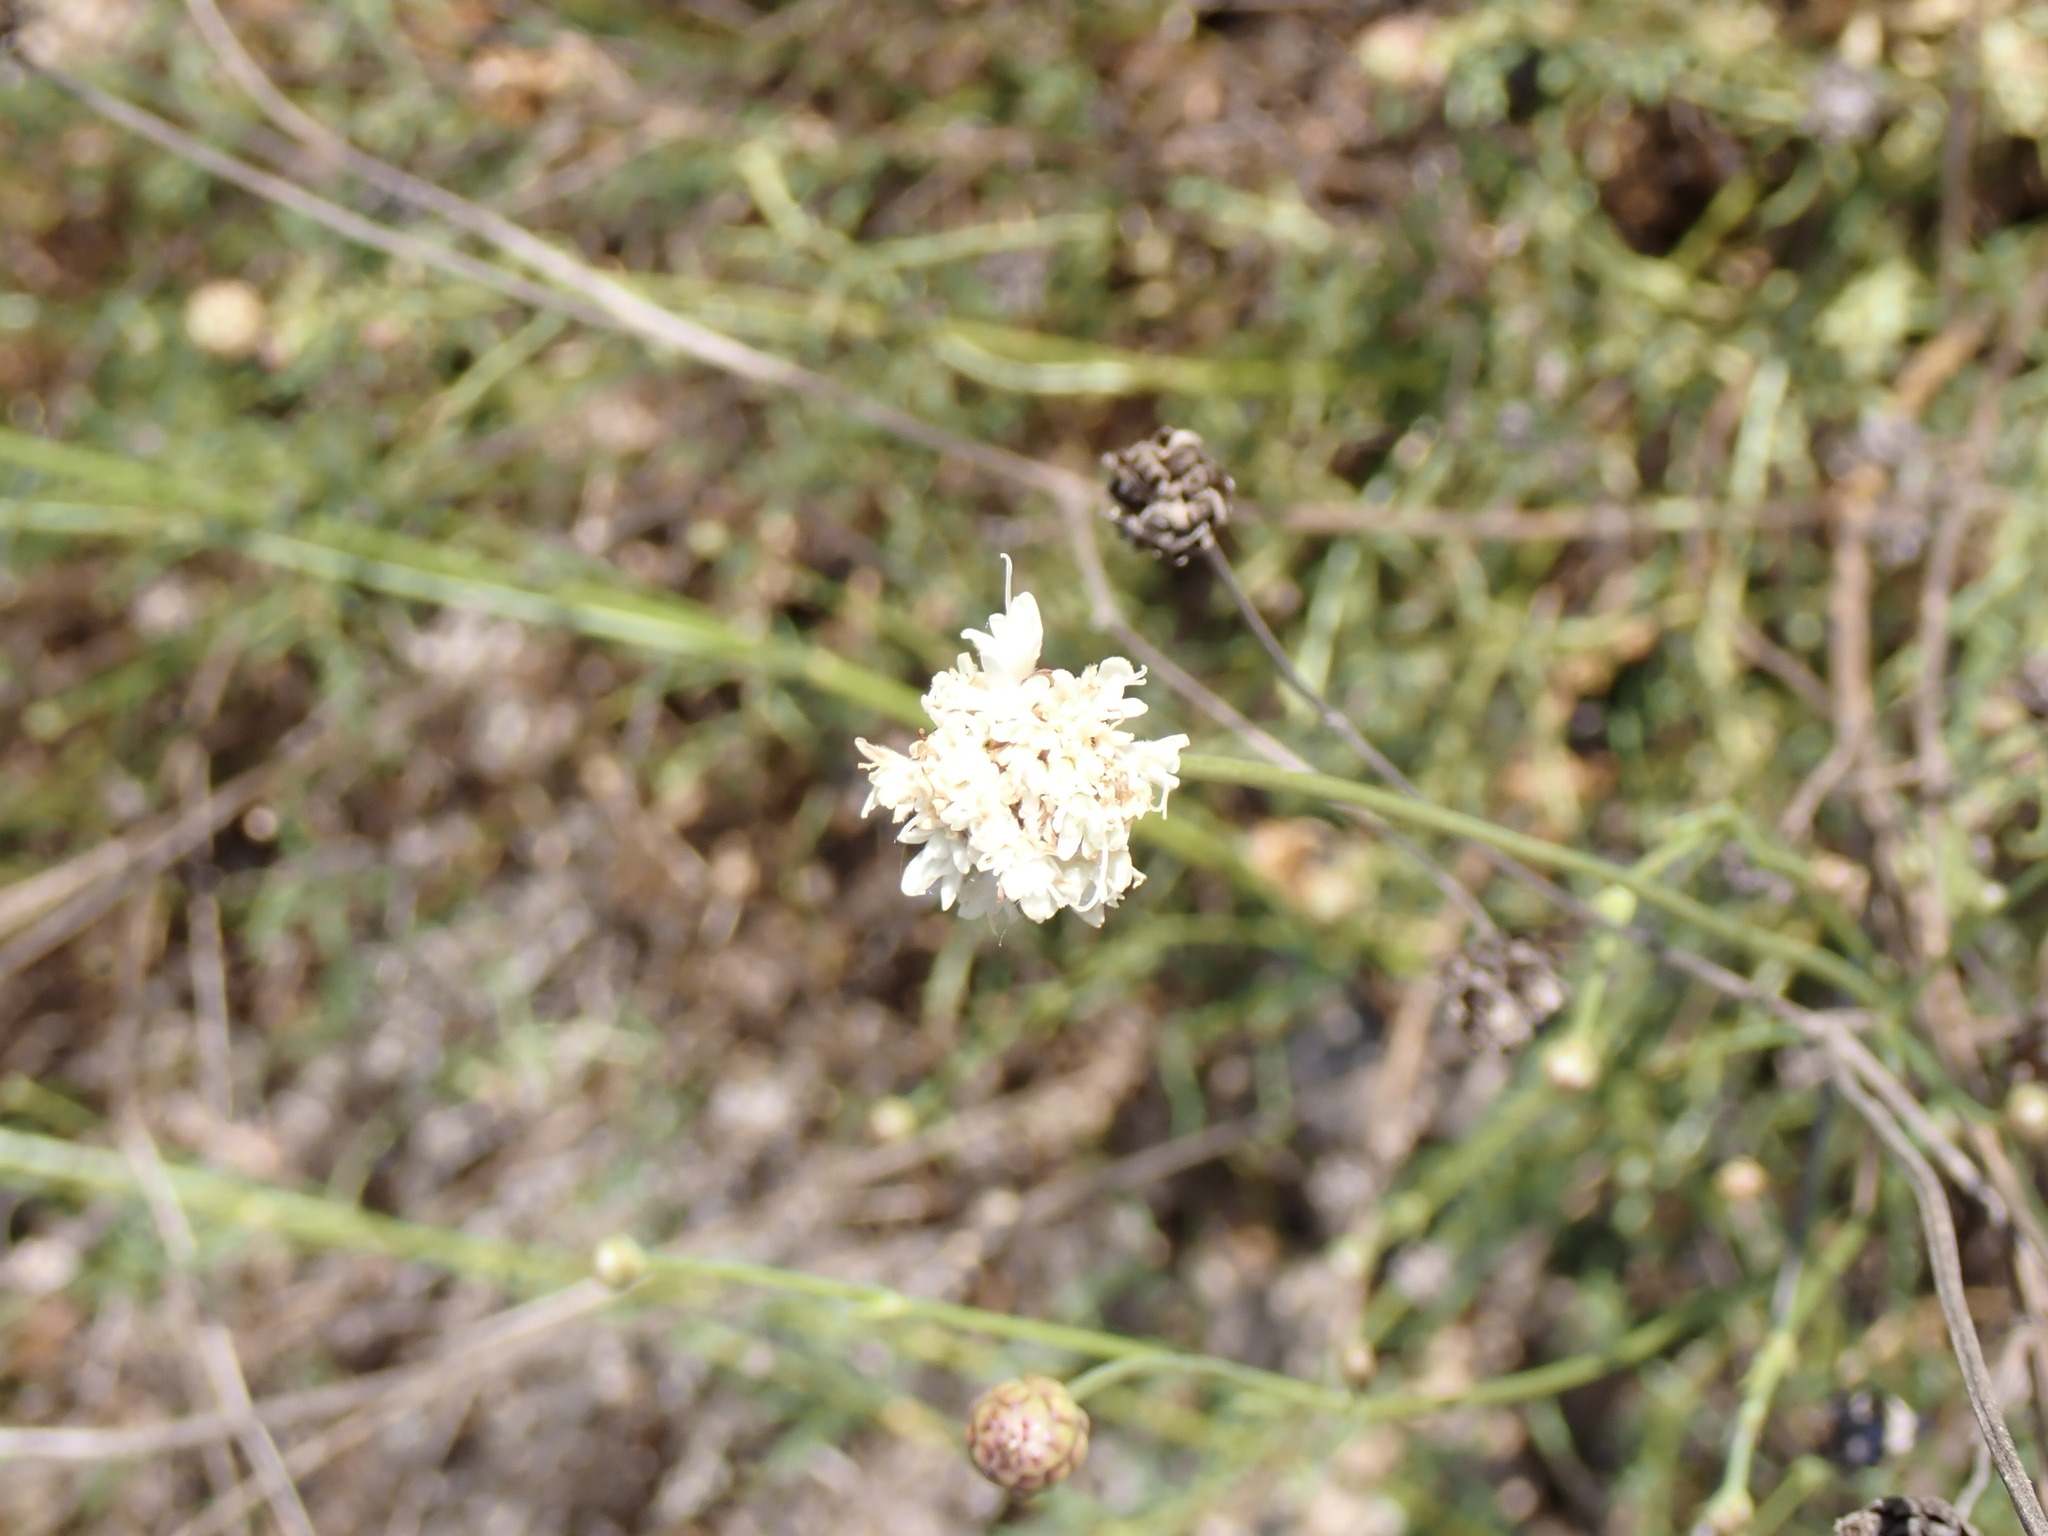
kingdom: Plantae
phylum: Tracheophyta
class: Magnoliopsida
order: Dipsacales
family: Caprifoliaceae
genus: Cephalaria
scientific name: Cephalaria leucantha
